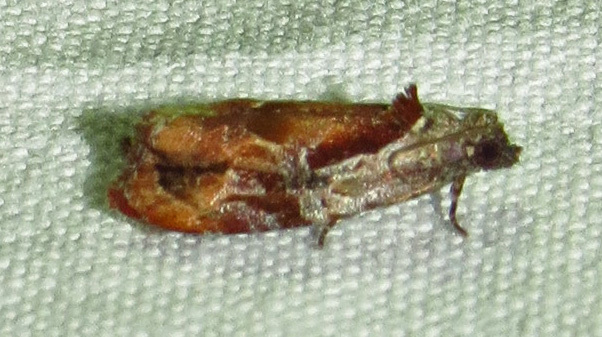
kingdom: Animalia
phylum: Arthropoda
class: Insecta
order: Lepidoptera
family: Tortricidae
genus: Zomaria
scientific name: Zomaria interruptolineana
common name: Broken-lined zomaria moth
